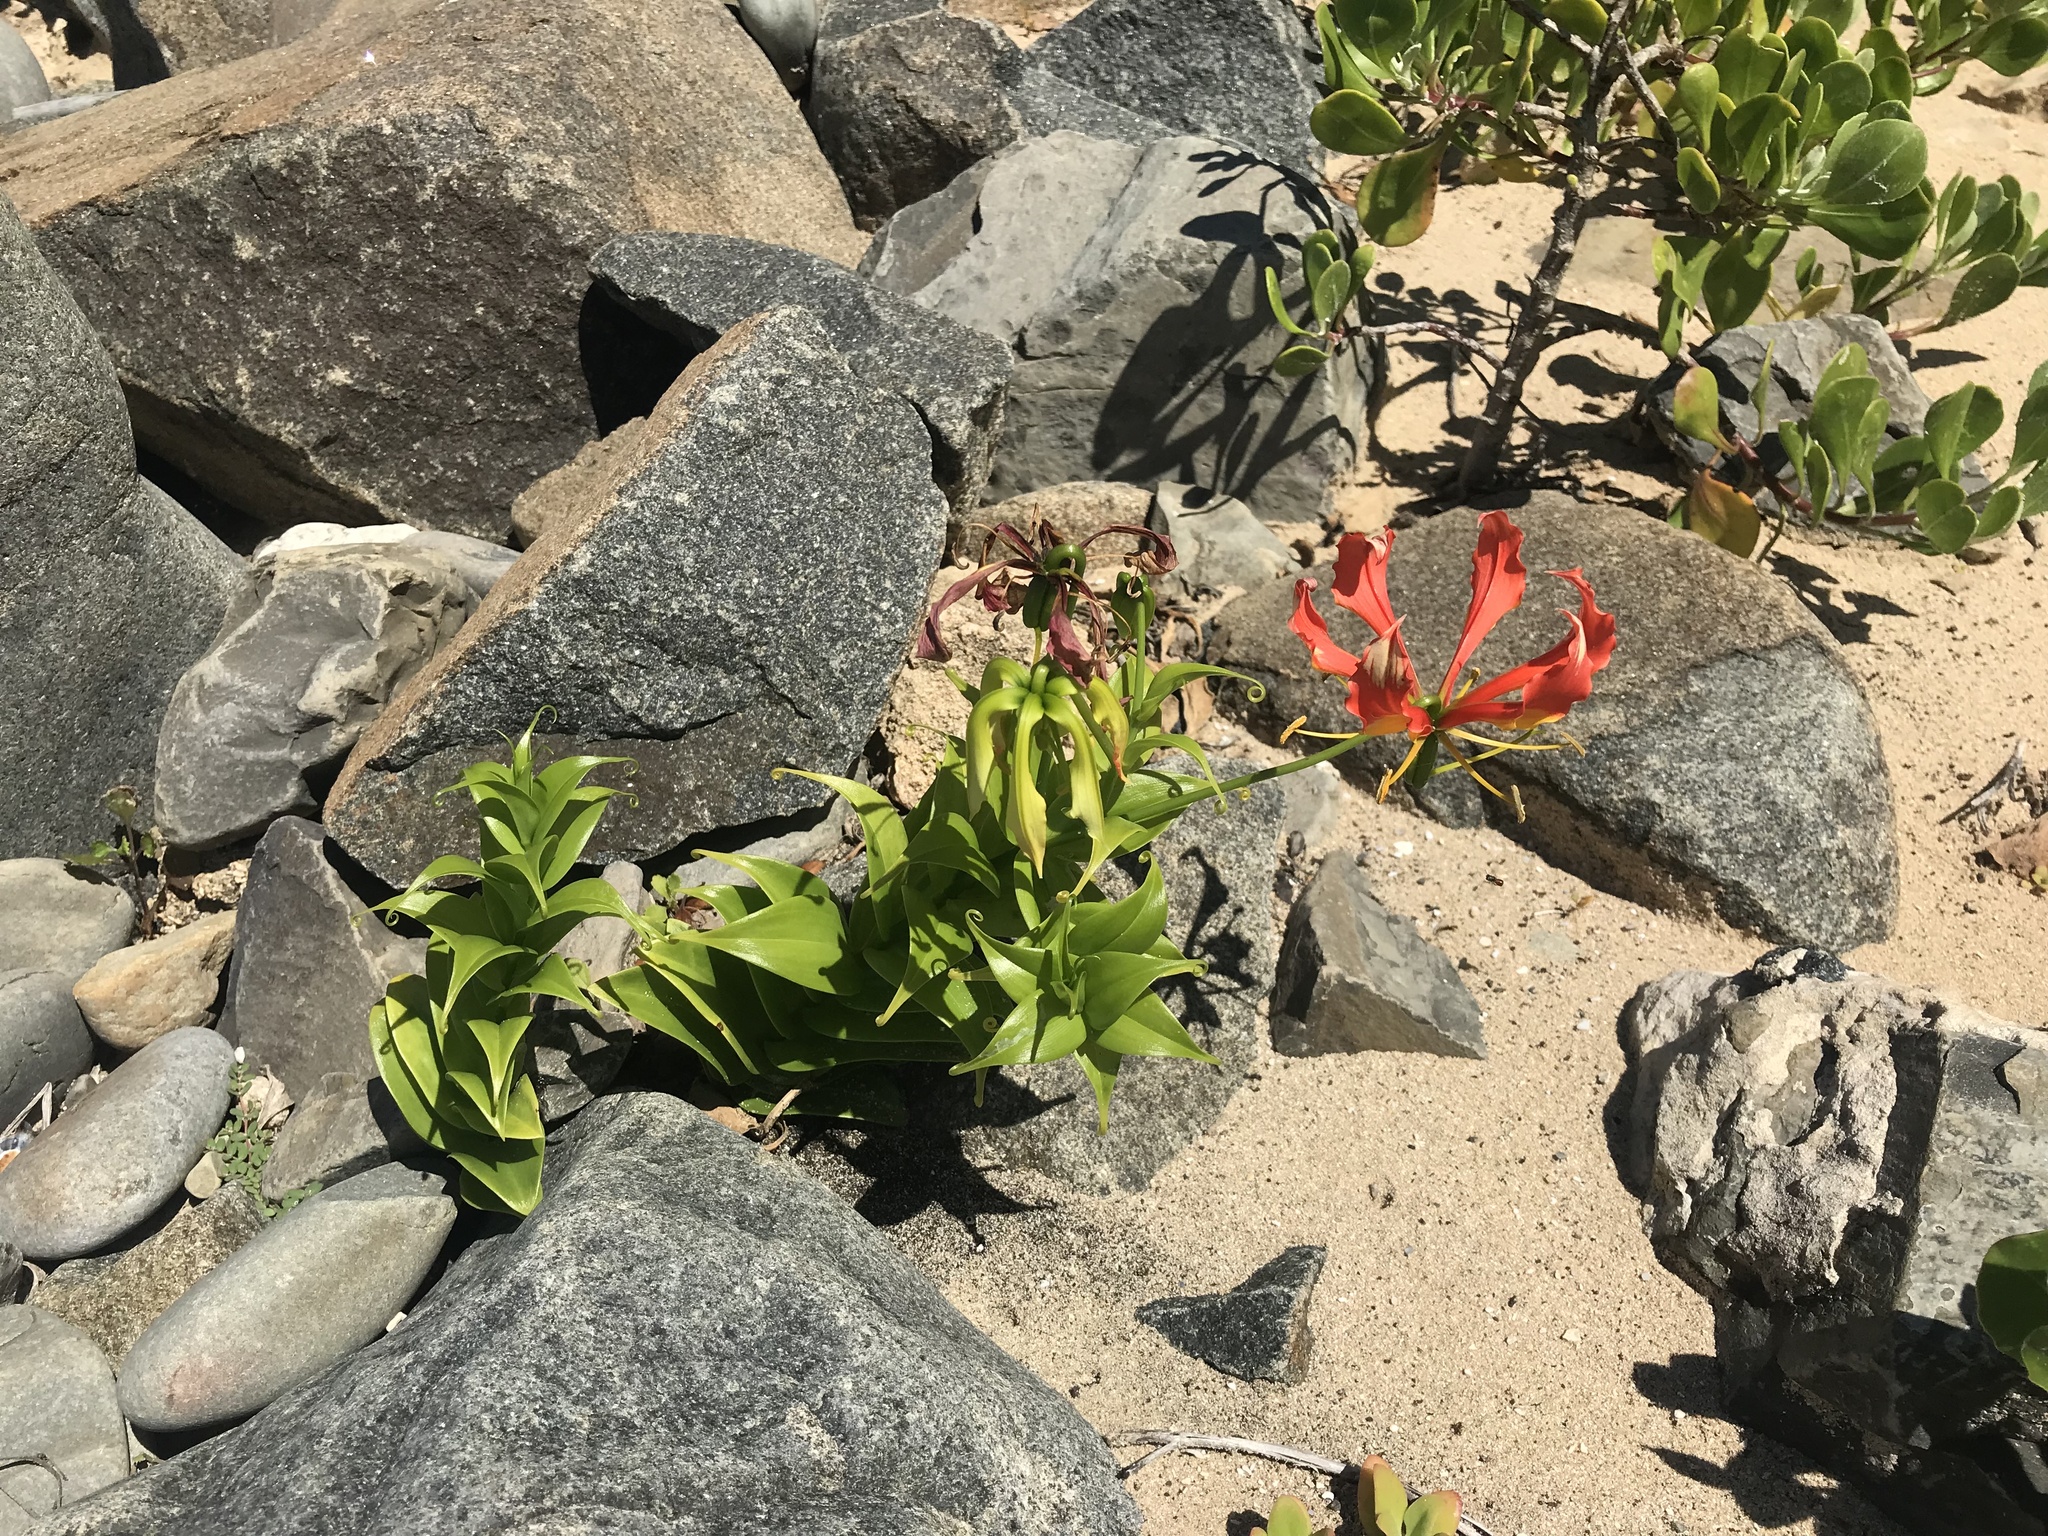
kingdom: Plantae
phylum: Tracheophyta
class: Liliopsida
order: Liliales
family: Colchicaceae
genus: Gloriosa
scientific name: Gloriosa superba
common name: Flame lily
